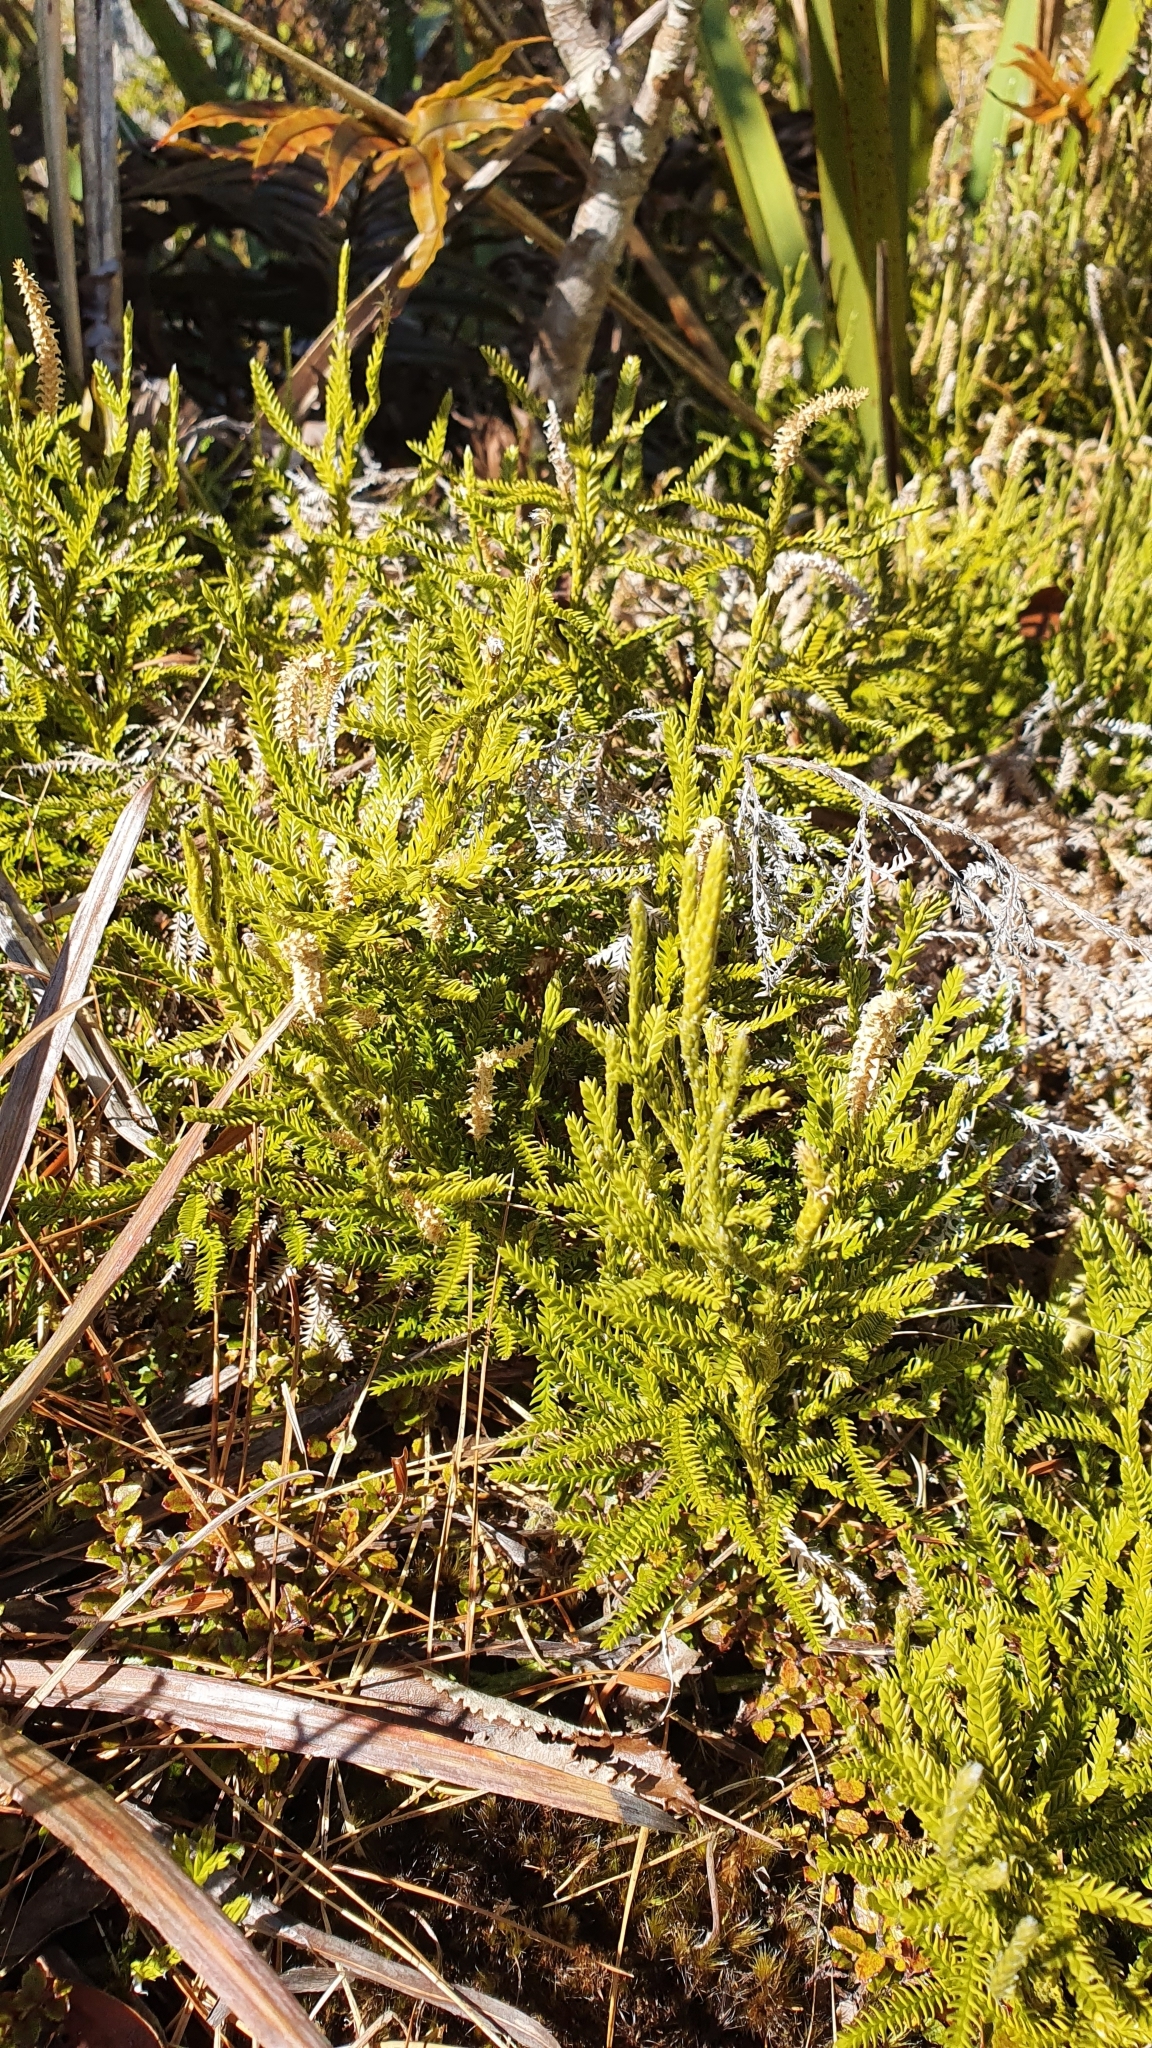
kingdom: Plantae
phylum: Tracheophyta
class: Lycopodiopsida
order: Lycopodiales
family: Lycopodiaceae
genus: Diphasium
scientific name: Diphasium scariosum
